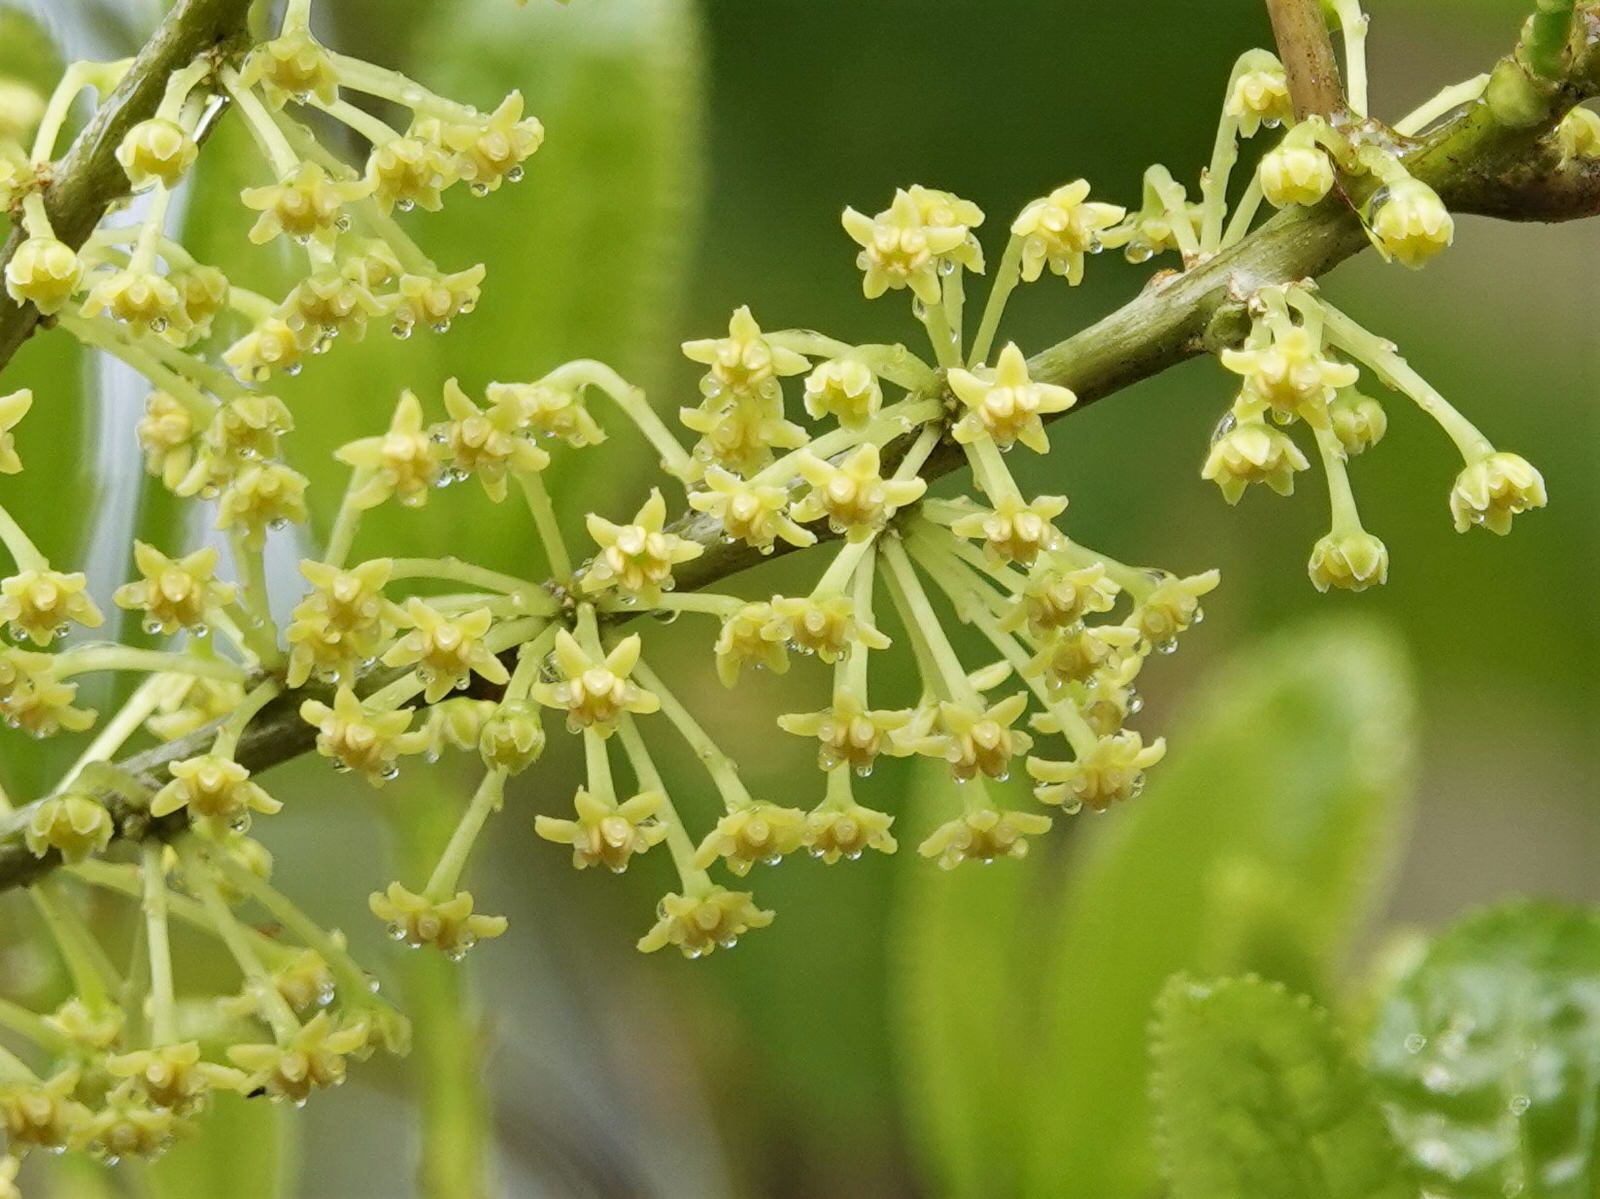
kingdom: Plantae
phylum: Tracheophyta
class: Magnoliopsida
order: Malpighiales
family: Violaceae
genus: Melicytus
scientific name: Melicytus ramiflorus
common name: Mahoe
